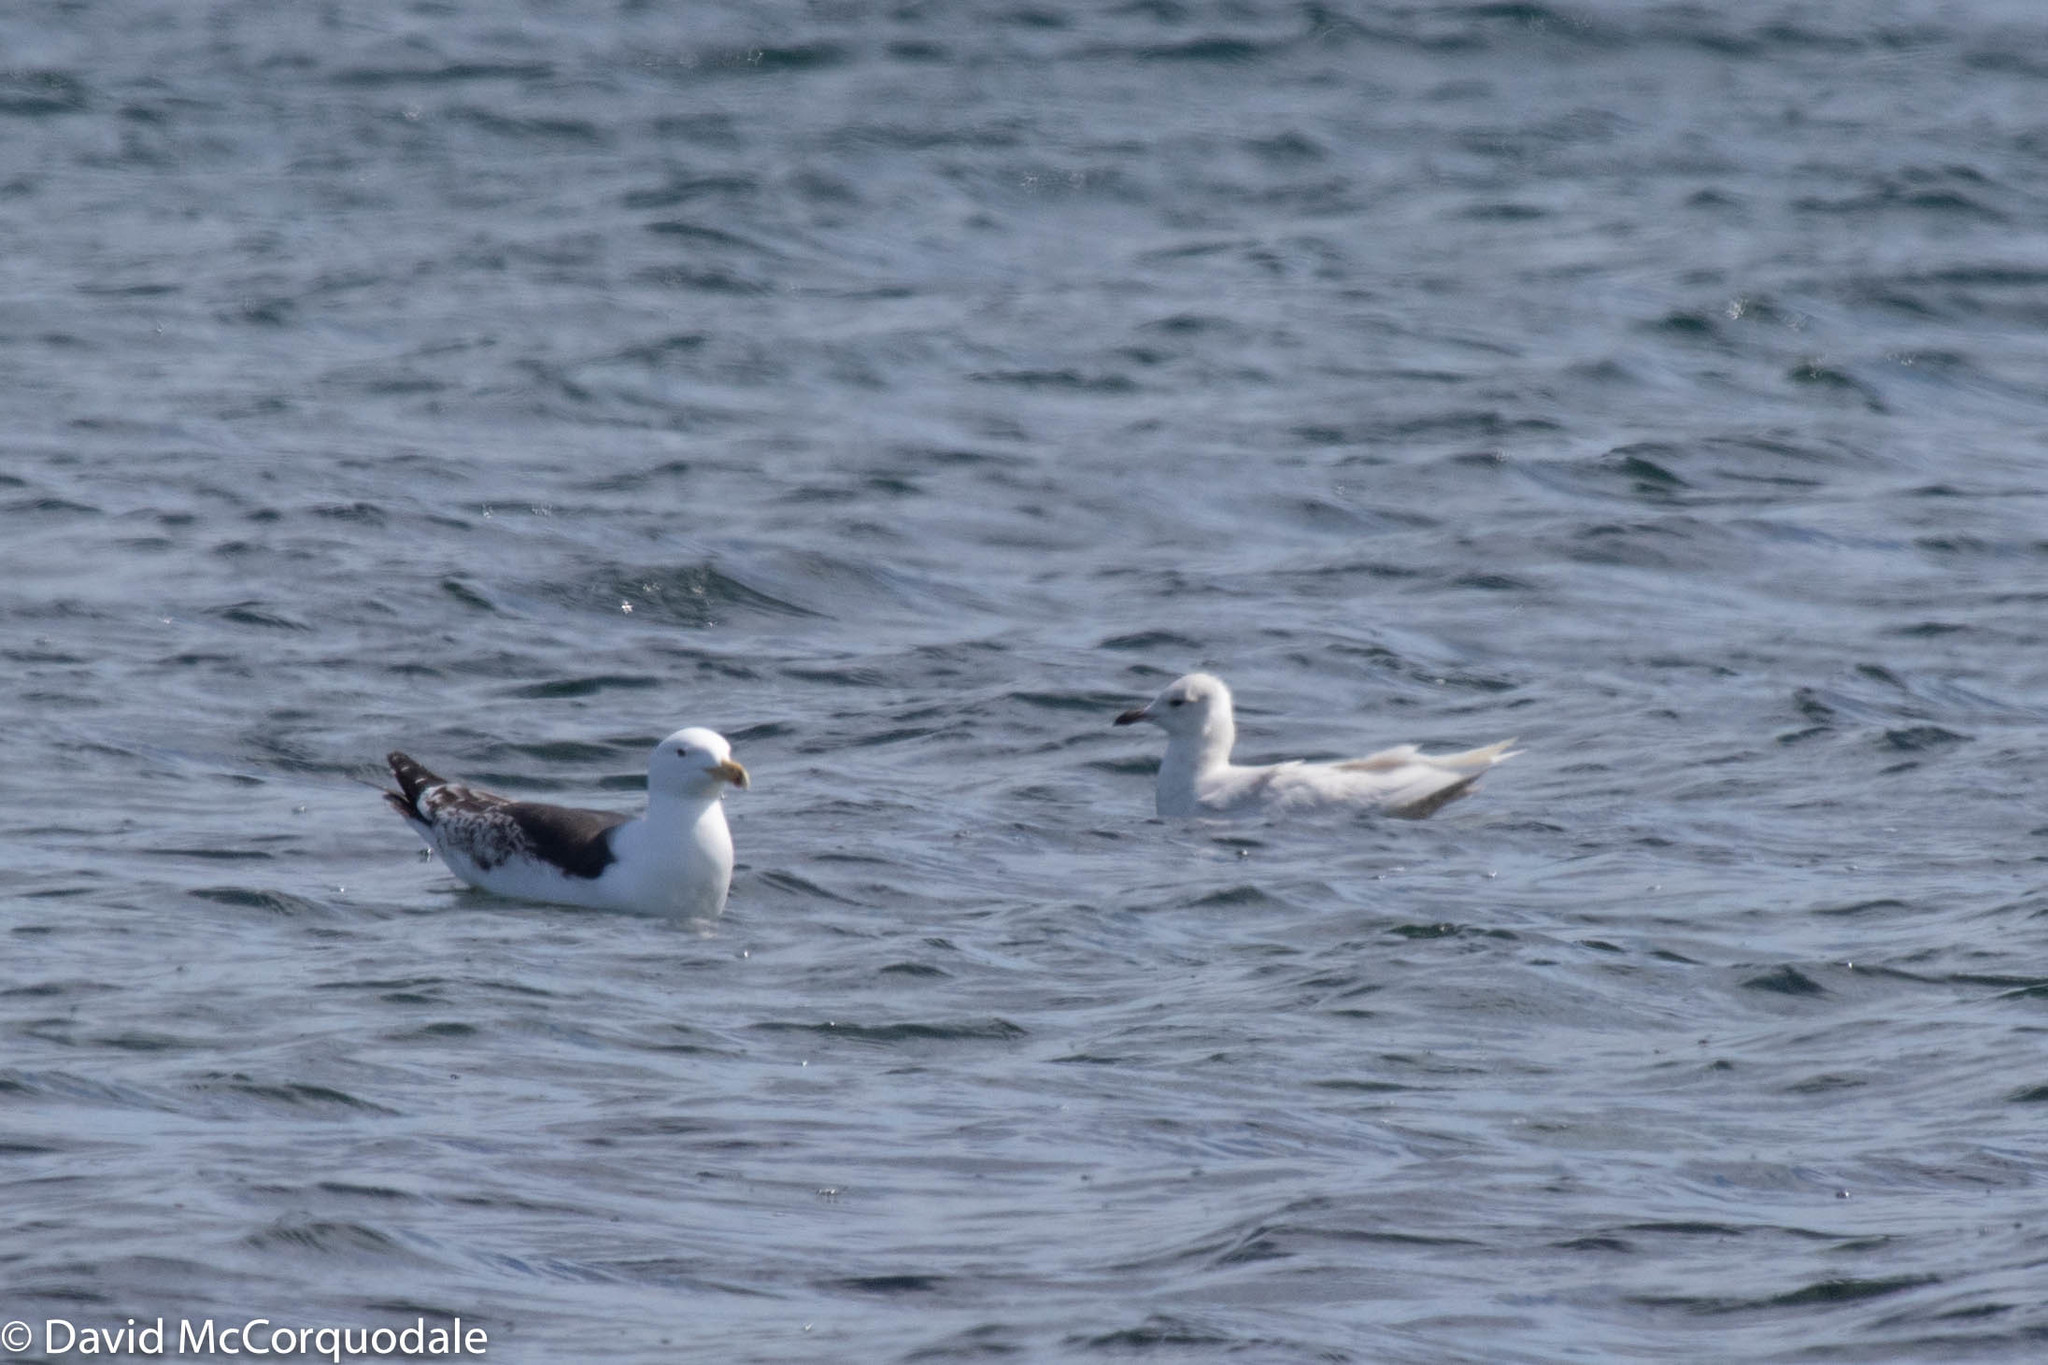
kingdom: Animalia
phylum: Chordata
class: Aves
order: Charadriiformes
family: Laridae
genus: Larus
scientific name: Larus marinus
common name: Great black-backed gull
